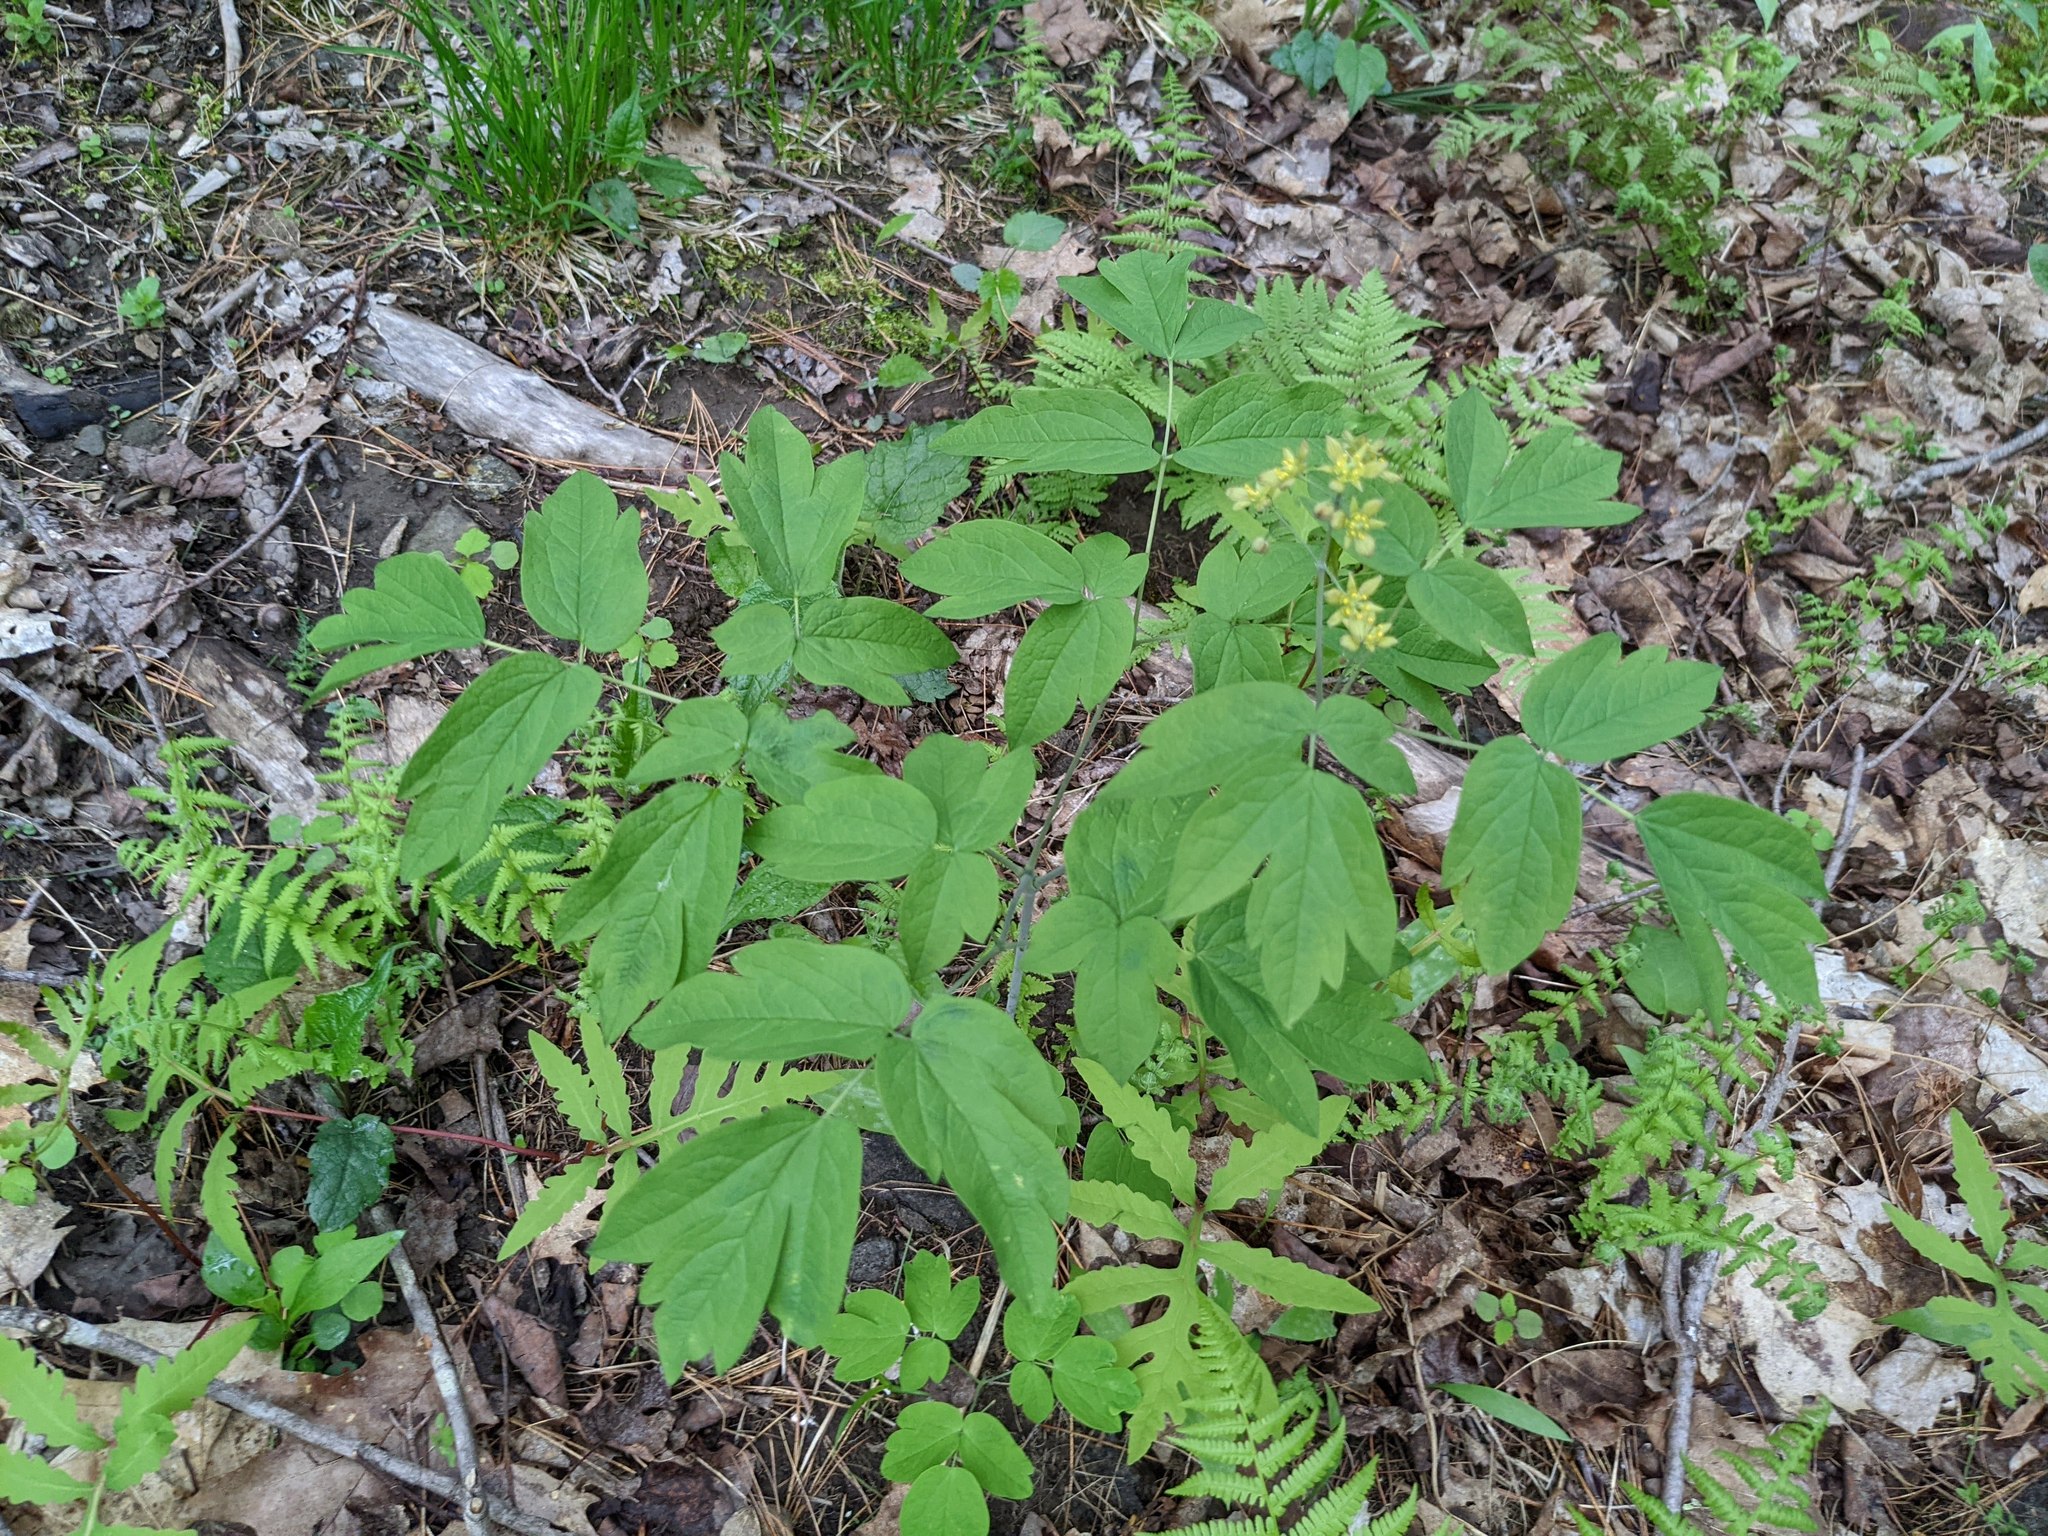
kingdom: Plantae
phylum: Tracheophyta
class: Magnoliopsida
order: Ranunculales
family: Berberidaceae
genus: Caulophyllum
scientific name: Caulophyllum thalictroides
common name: Blue cohosh
